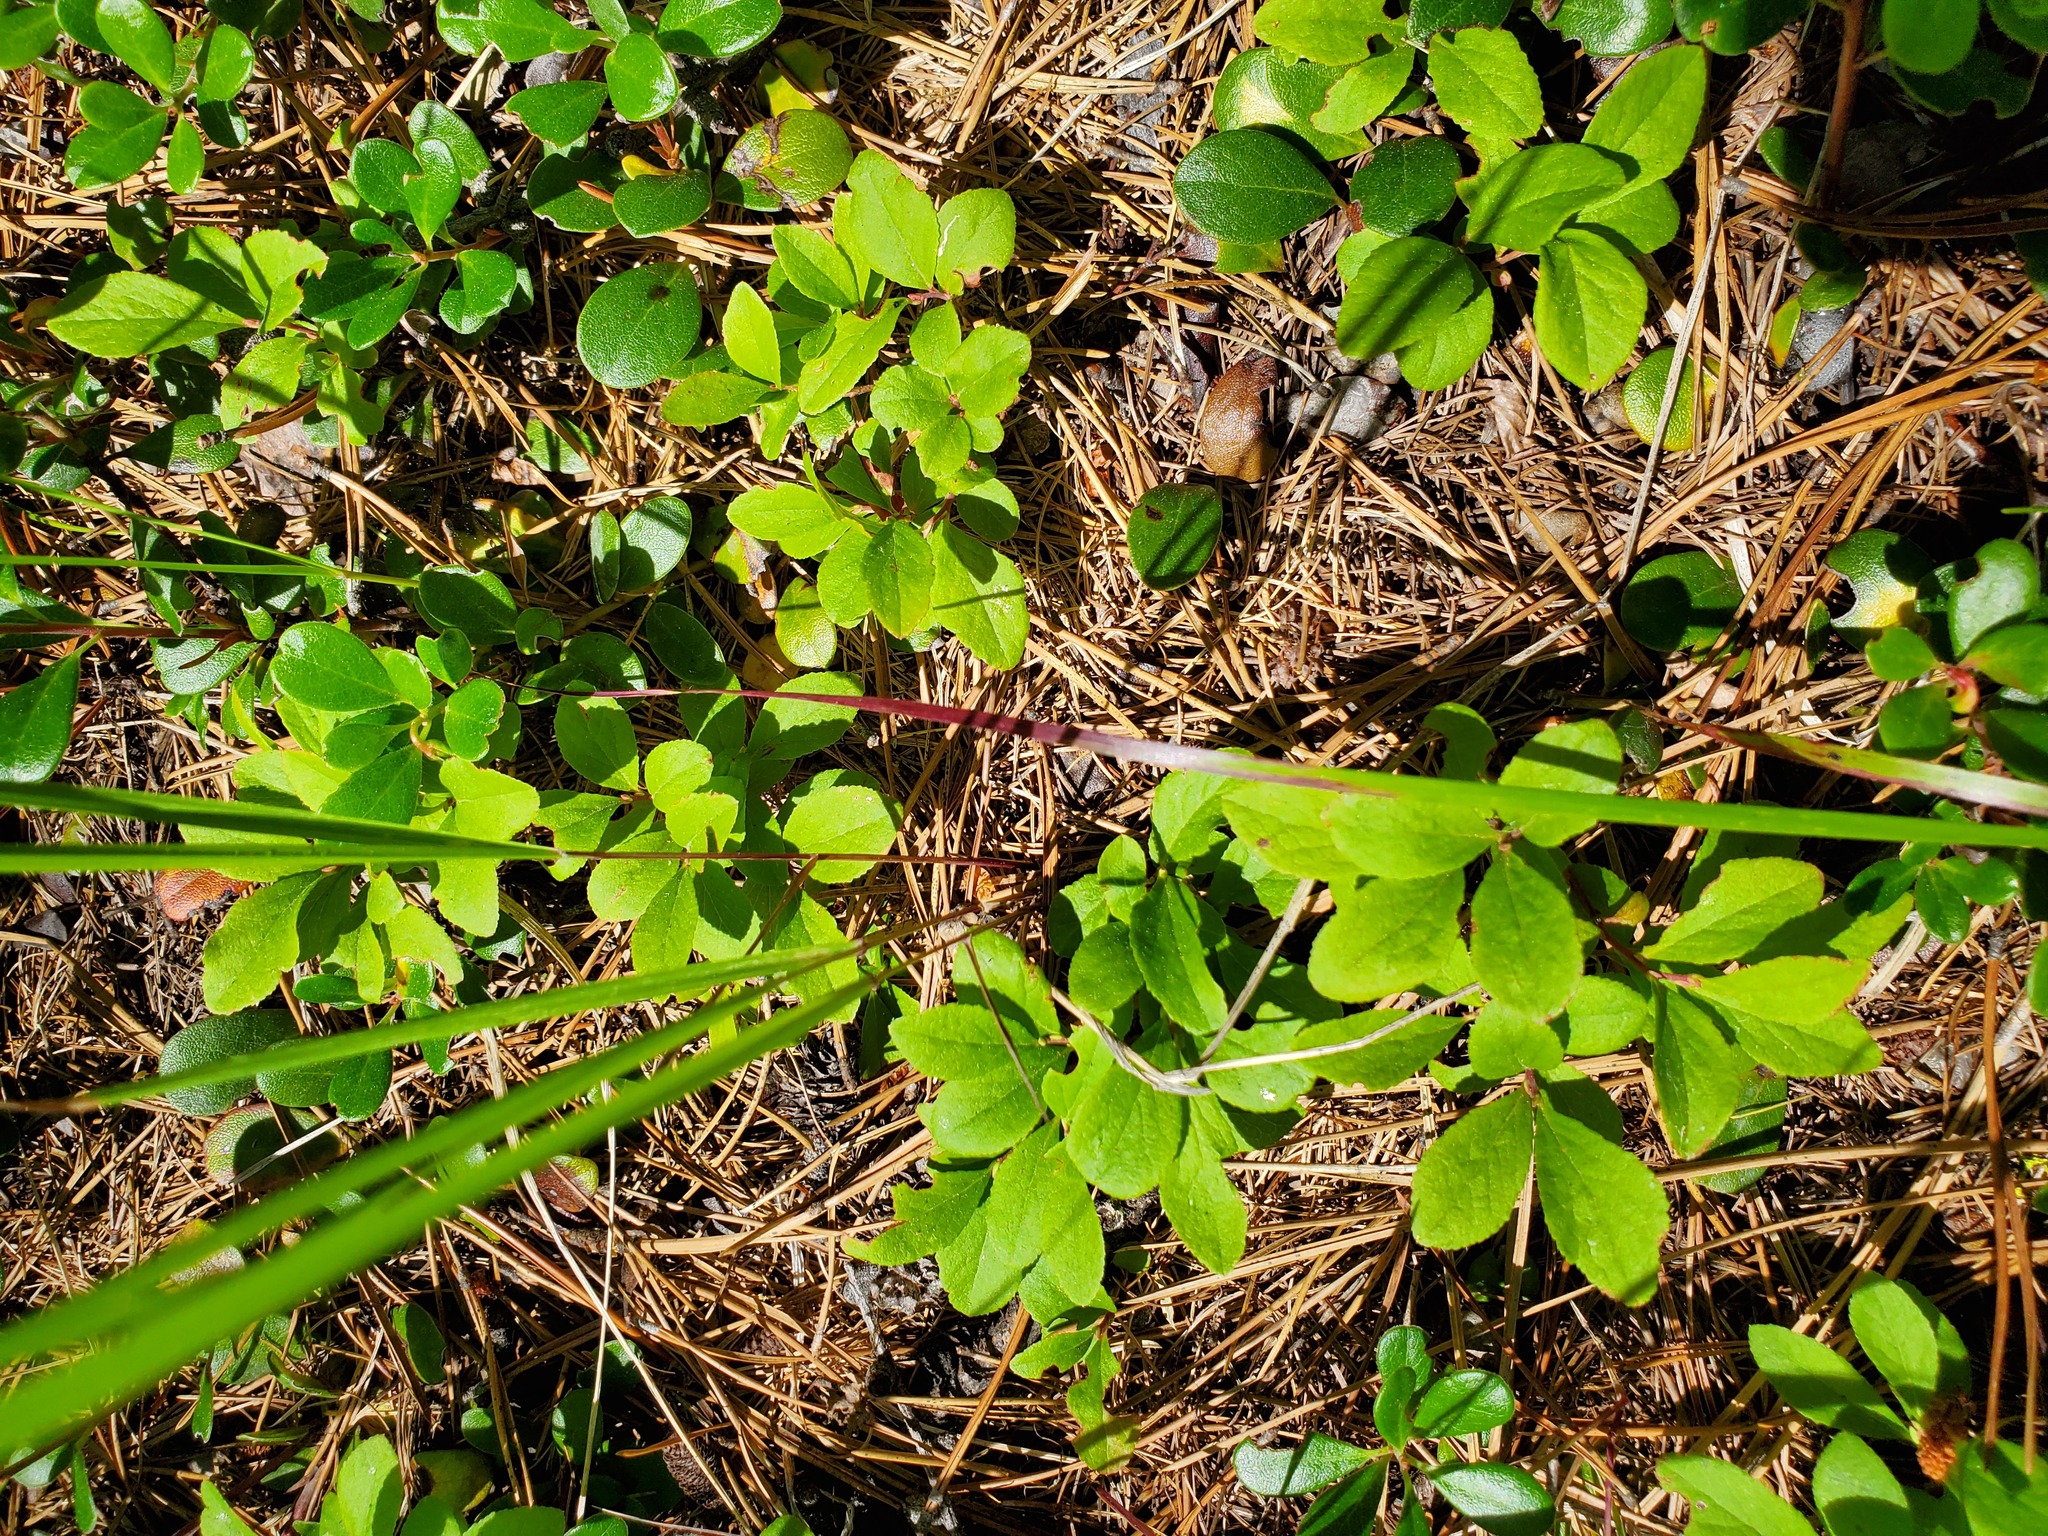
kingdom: Plantae
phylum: Tracheophyta
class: Magnoliopsida
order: Ericales
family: Ericaceae
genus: Vaccinium
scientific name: Vaccinium cespitosum
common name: Dwarf bilberry
